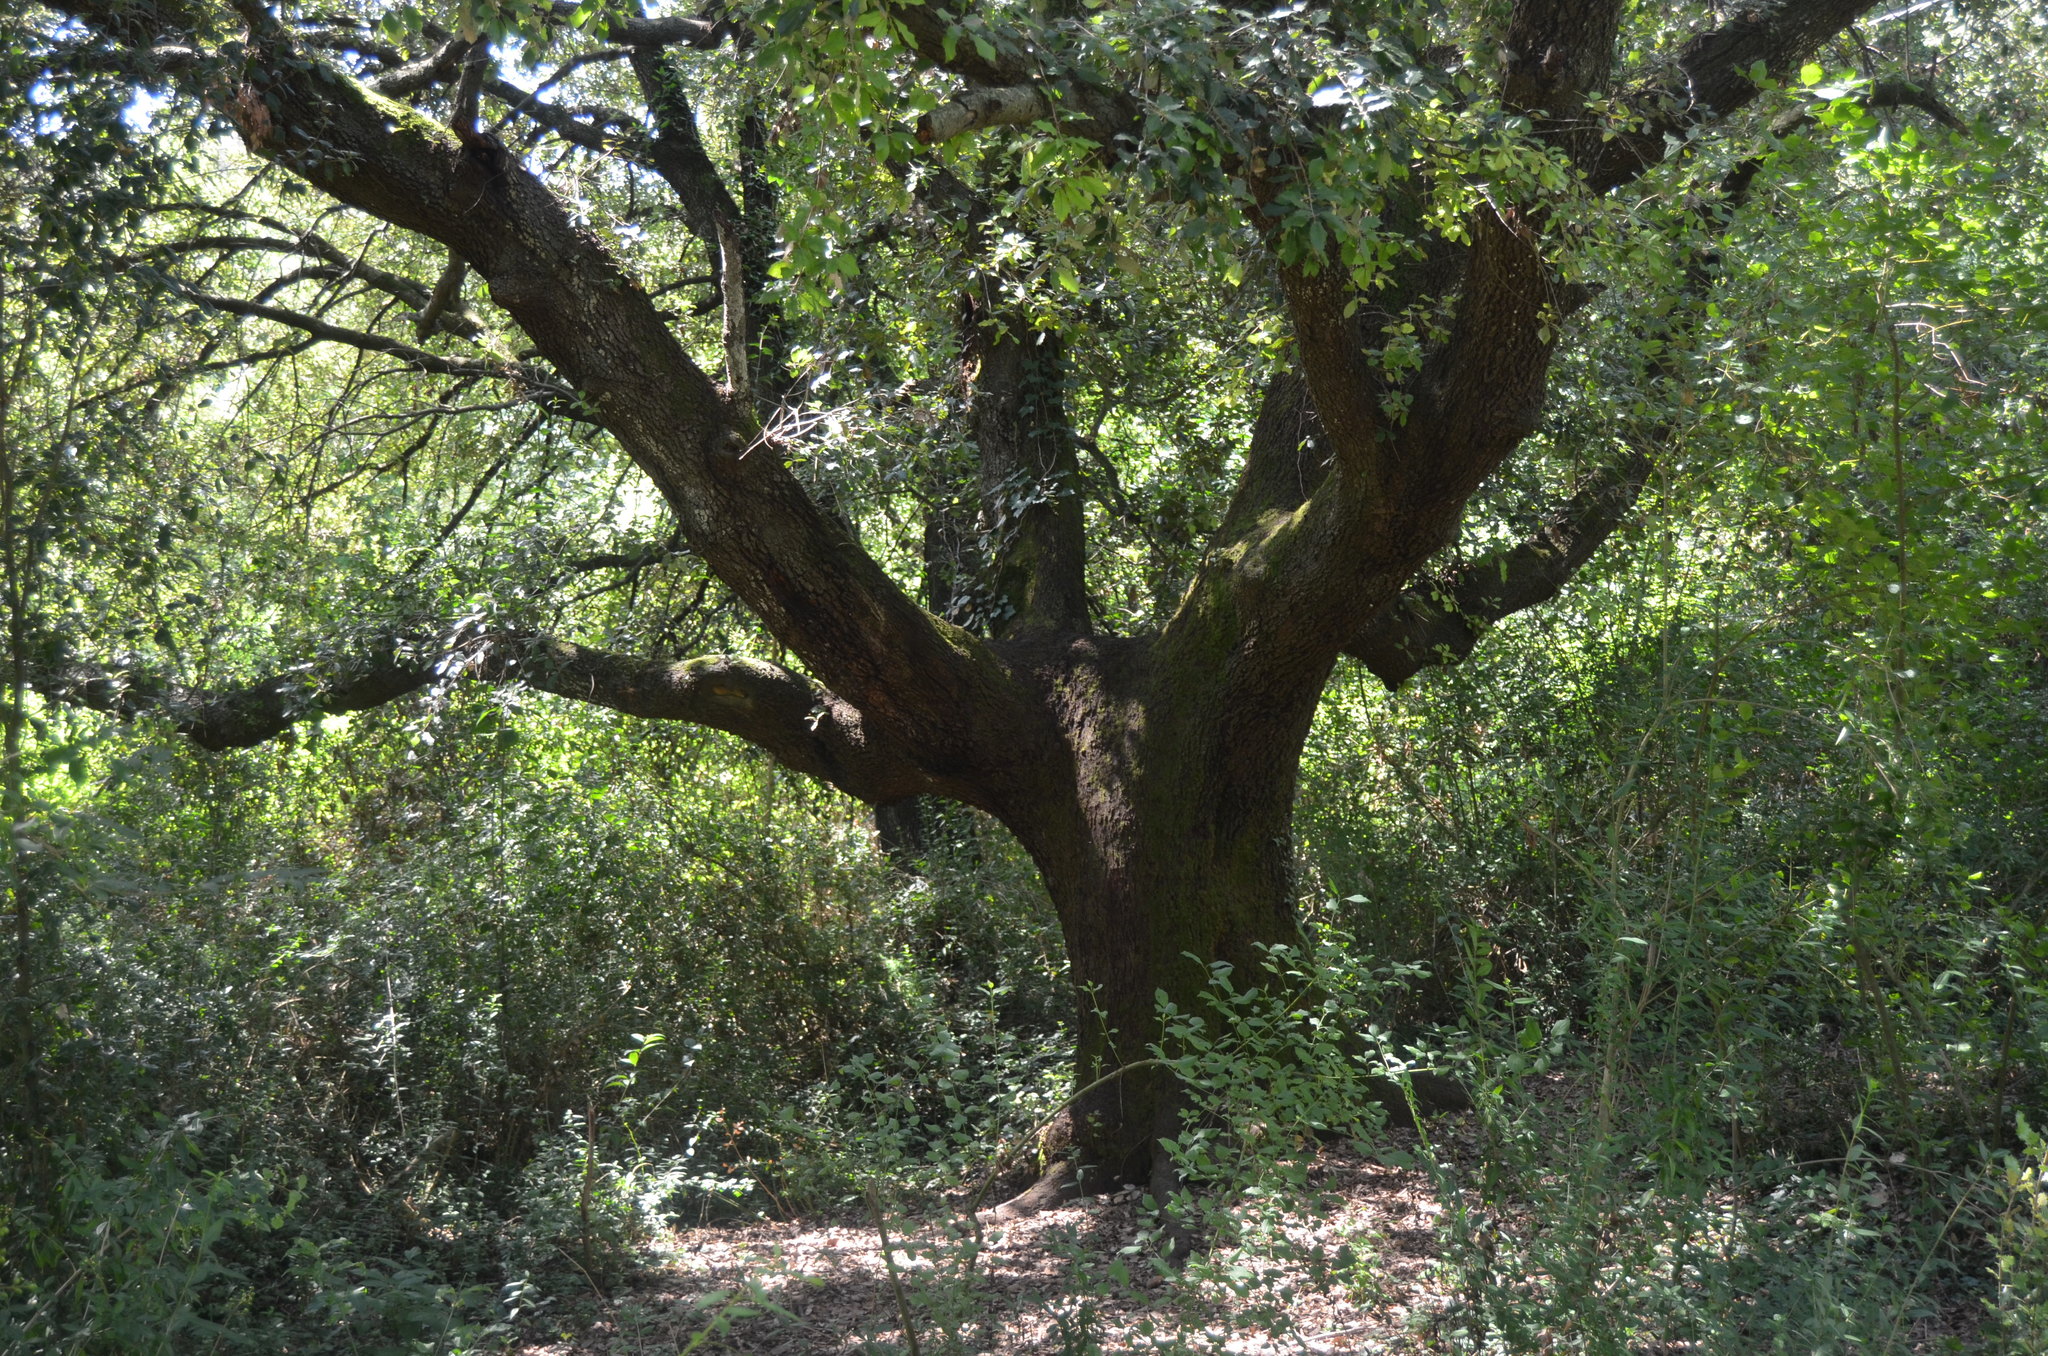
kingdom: Plantae
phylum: Tracheophyta
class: Magnoliopsida
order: Fagales
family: Fagaceae
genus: Quercus
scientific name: Quercus ilex
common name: Evergreen oak
